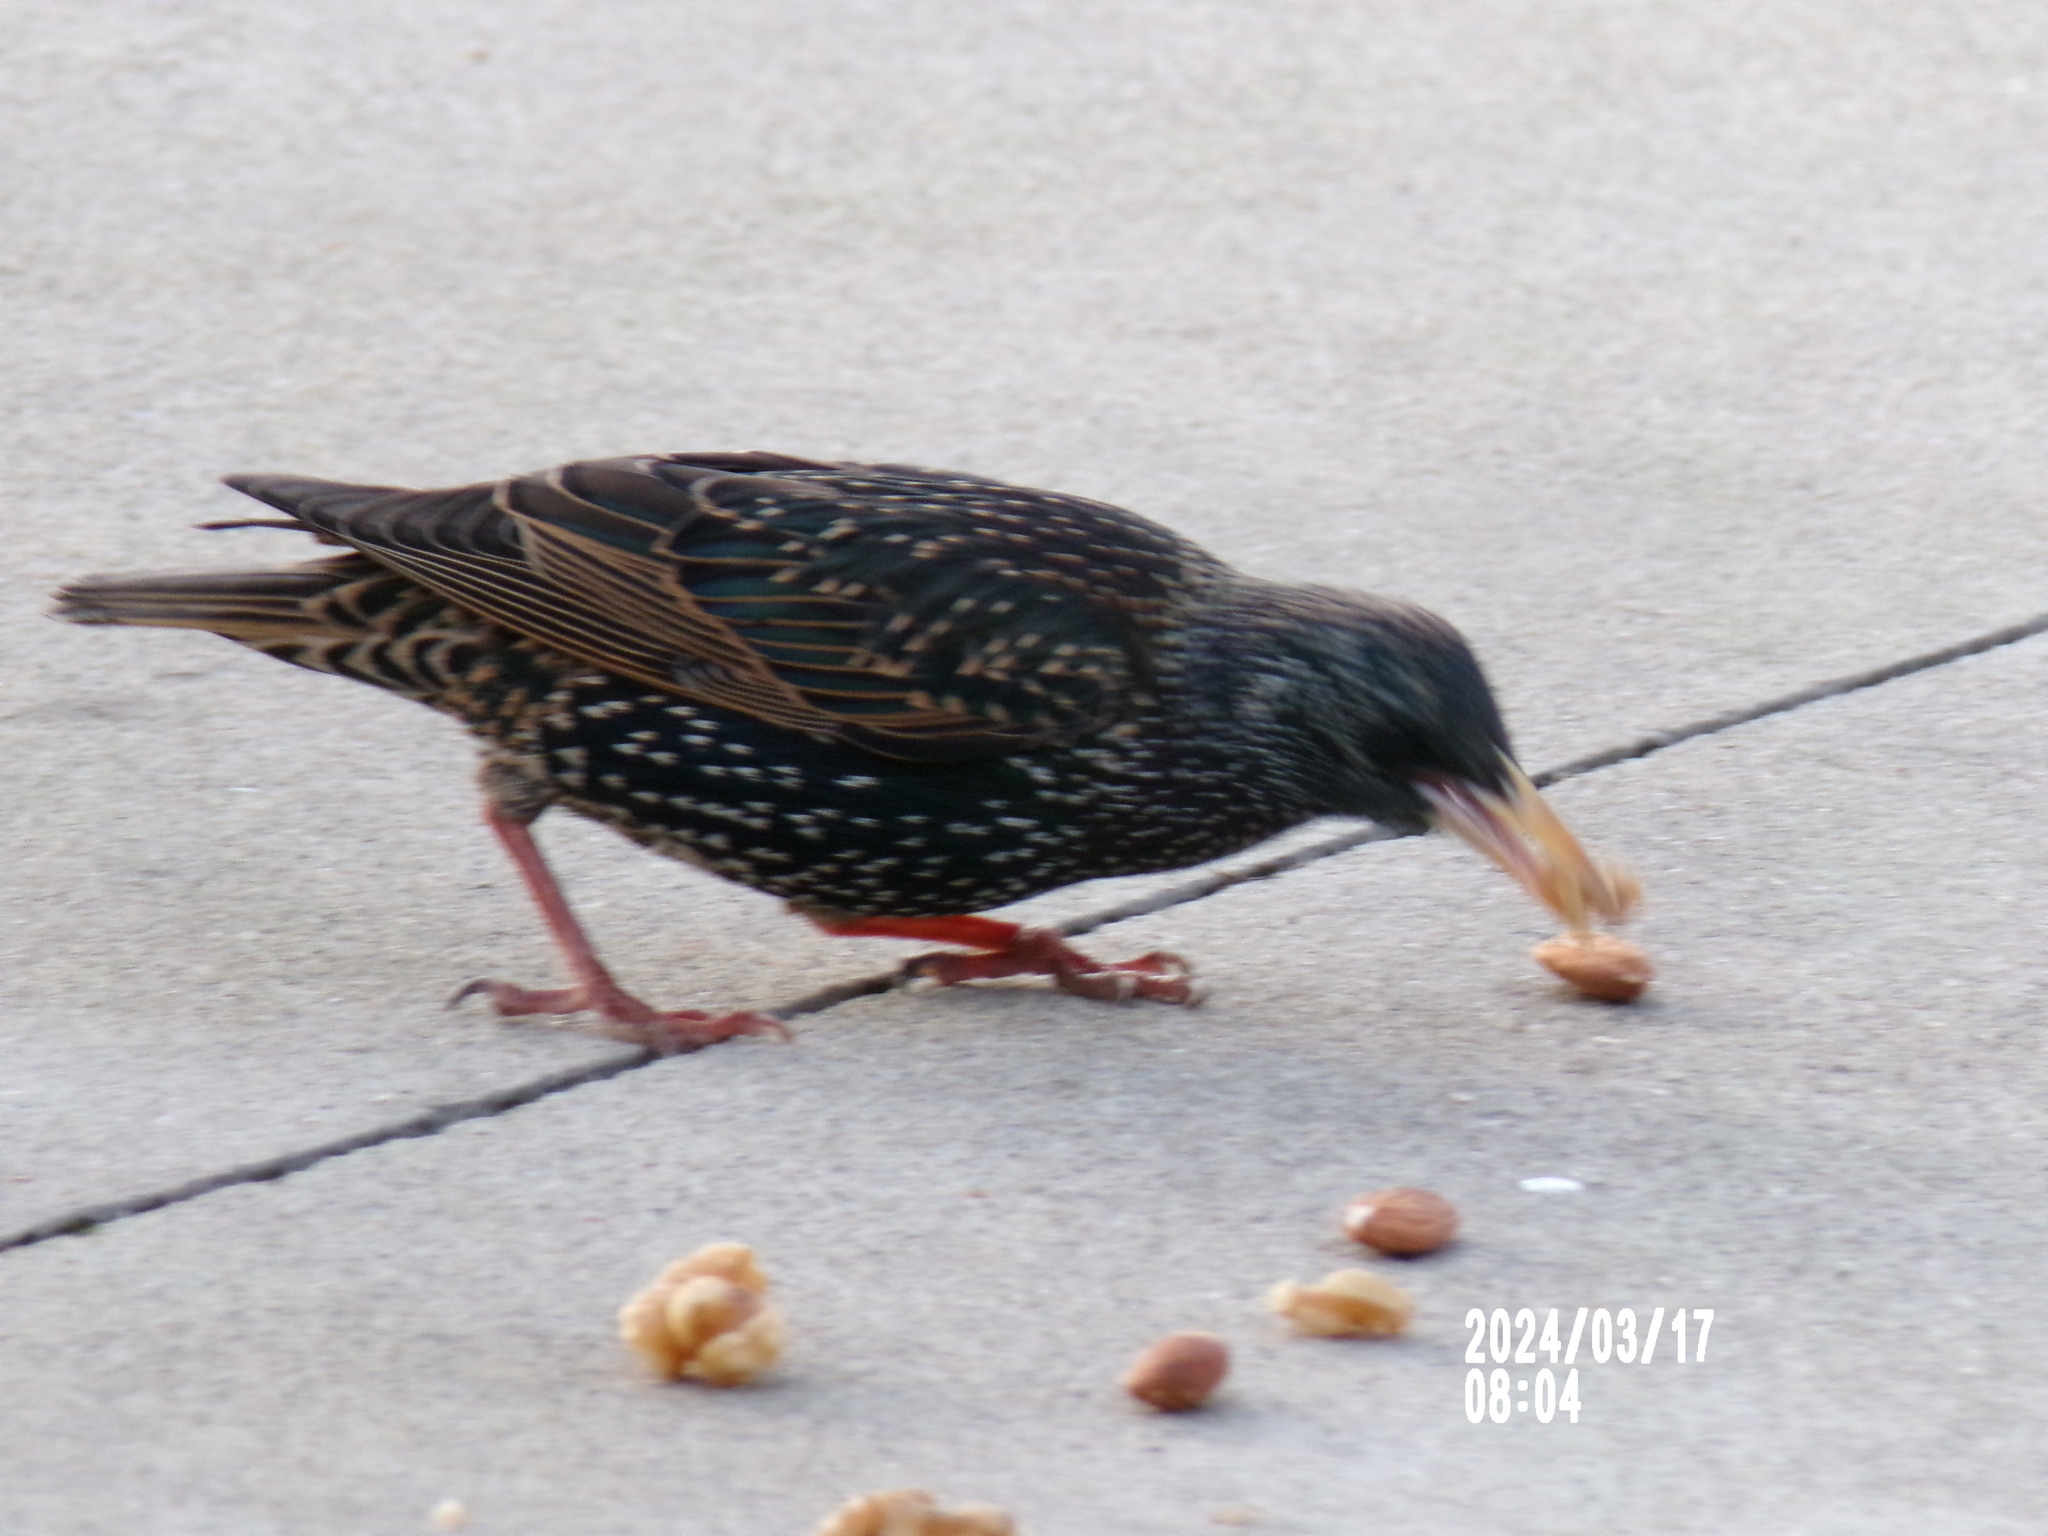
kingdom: Animalia
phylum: Chordata
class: Aves
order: Passeriformes
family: Sturnidae
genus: Sturnus
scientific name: Sturnus vulgaris
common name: Common starling
